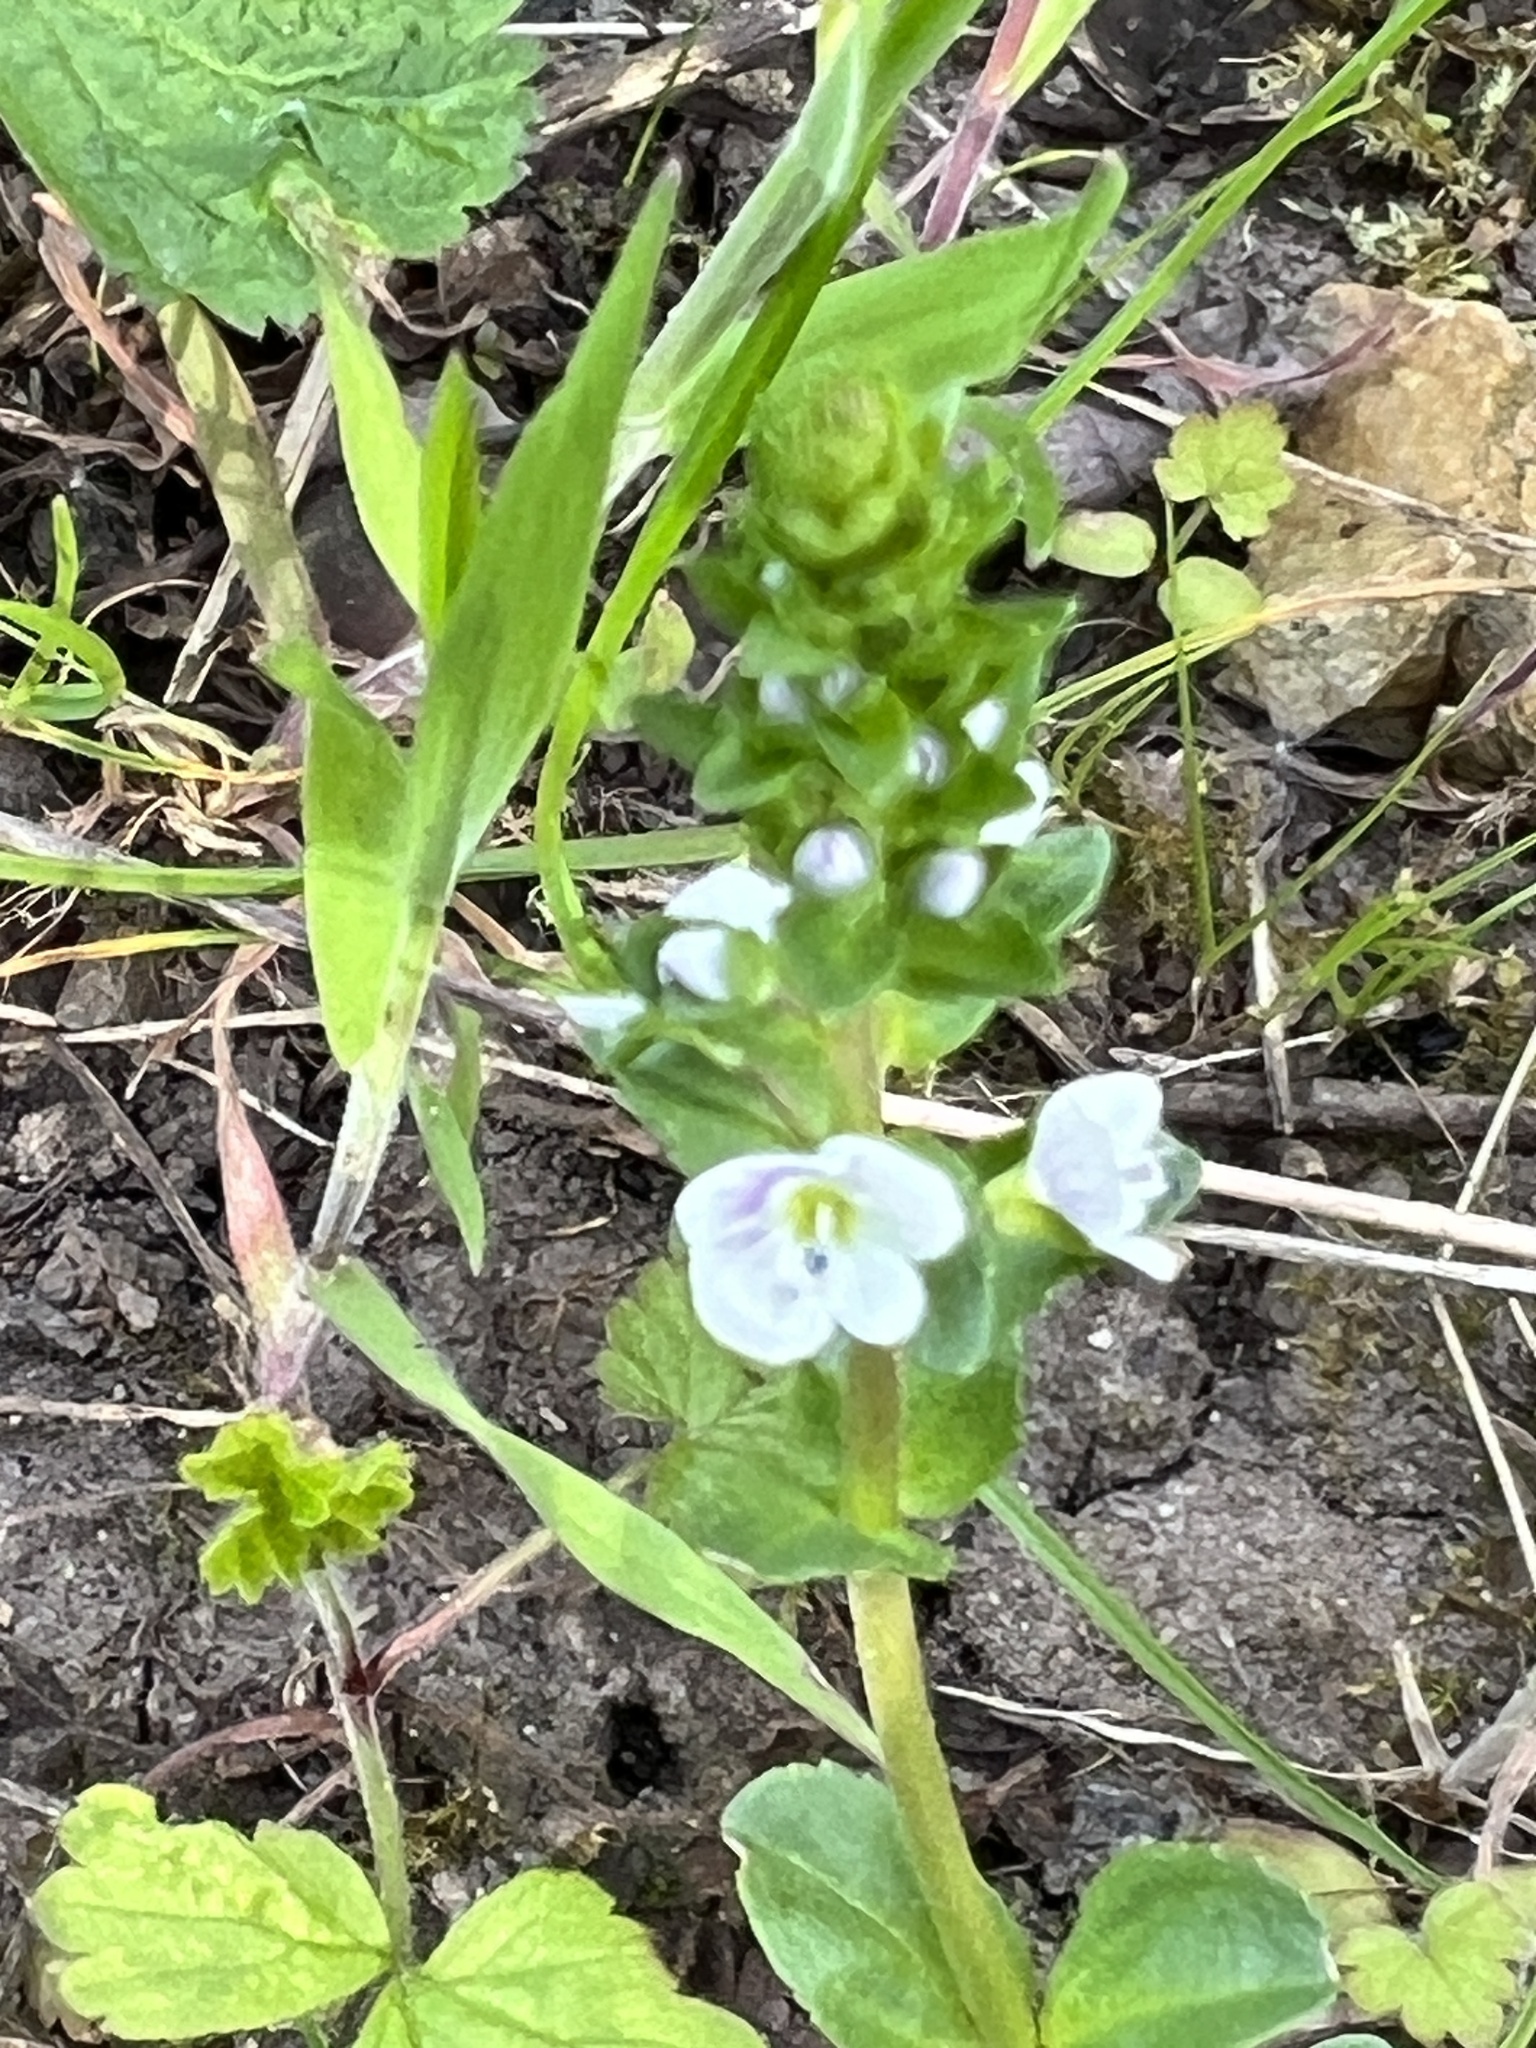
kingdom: Plantae
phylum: Tracheophyta
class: Magnoliopsida
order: Lamiales
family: Plantaginaceae
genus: Veronica
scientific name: Veronica serpyllifolia
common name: Thyme-leaved speedwell
